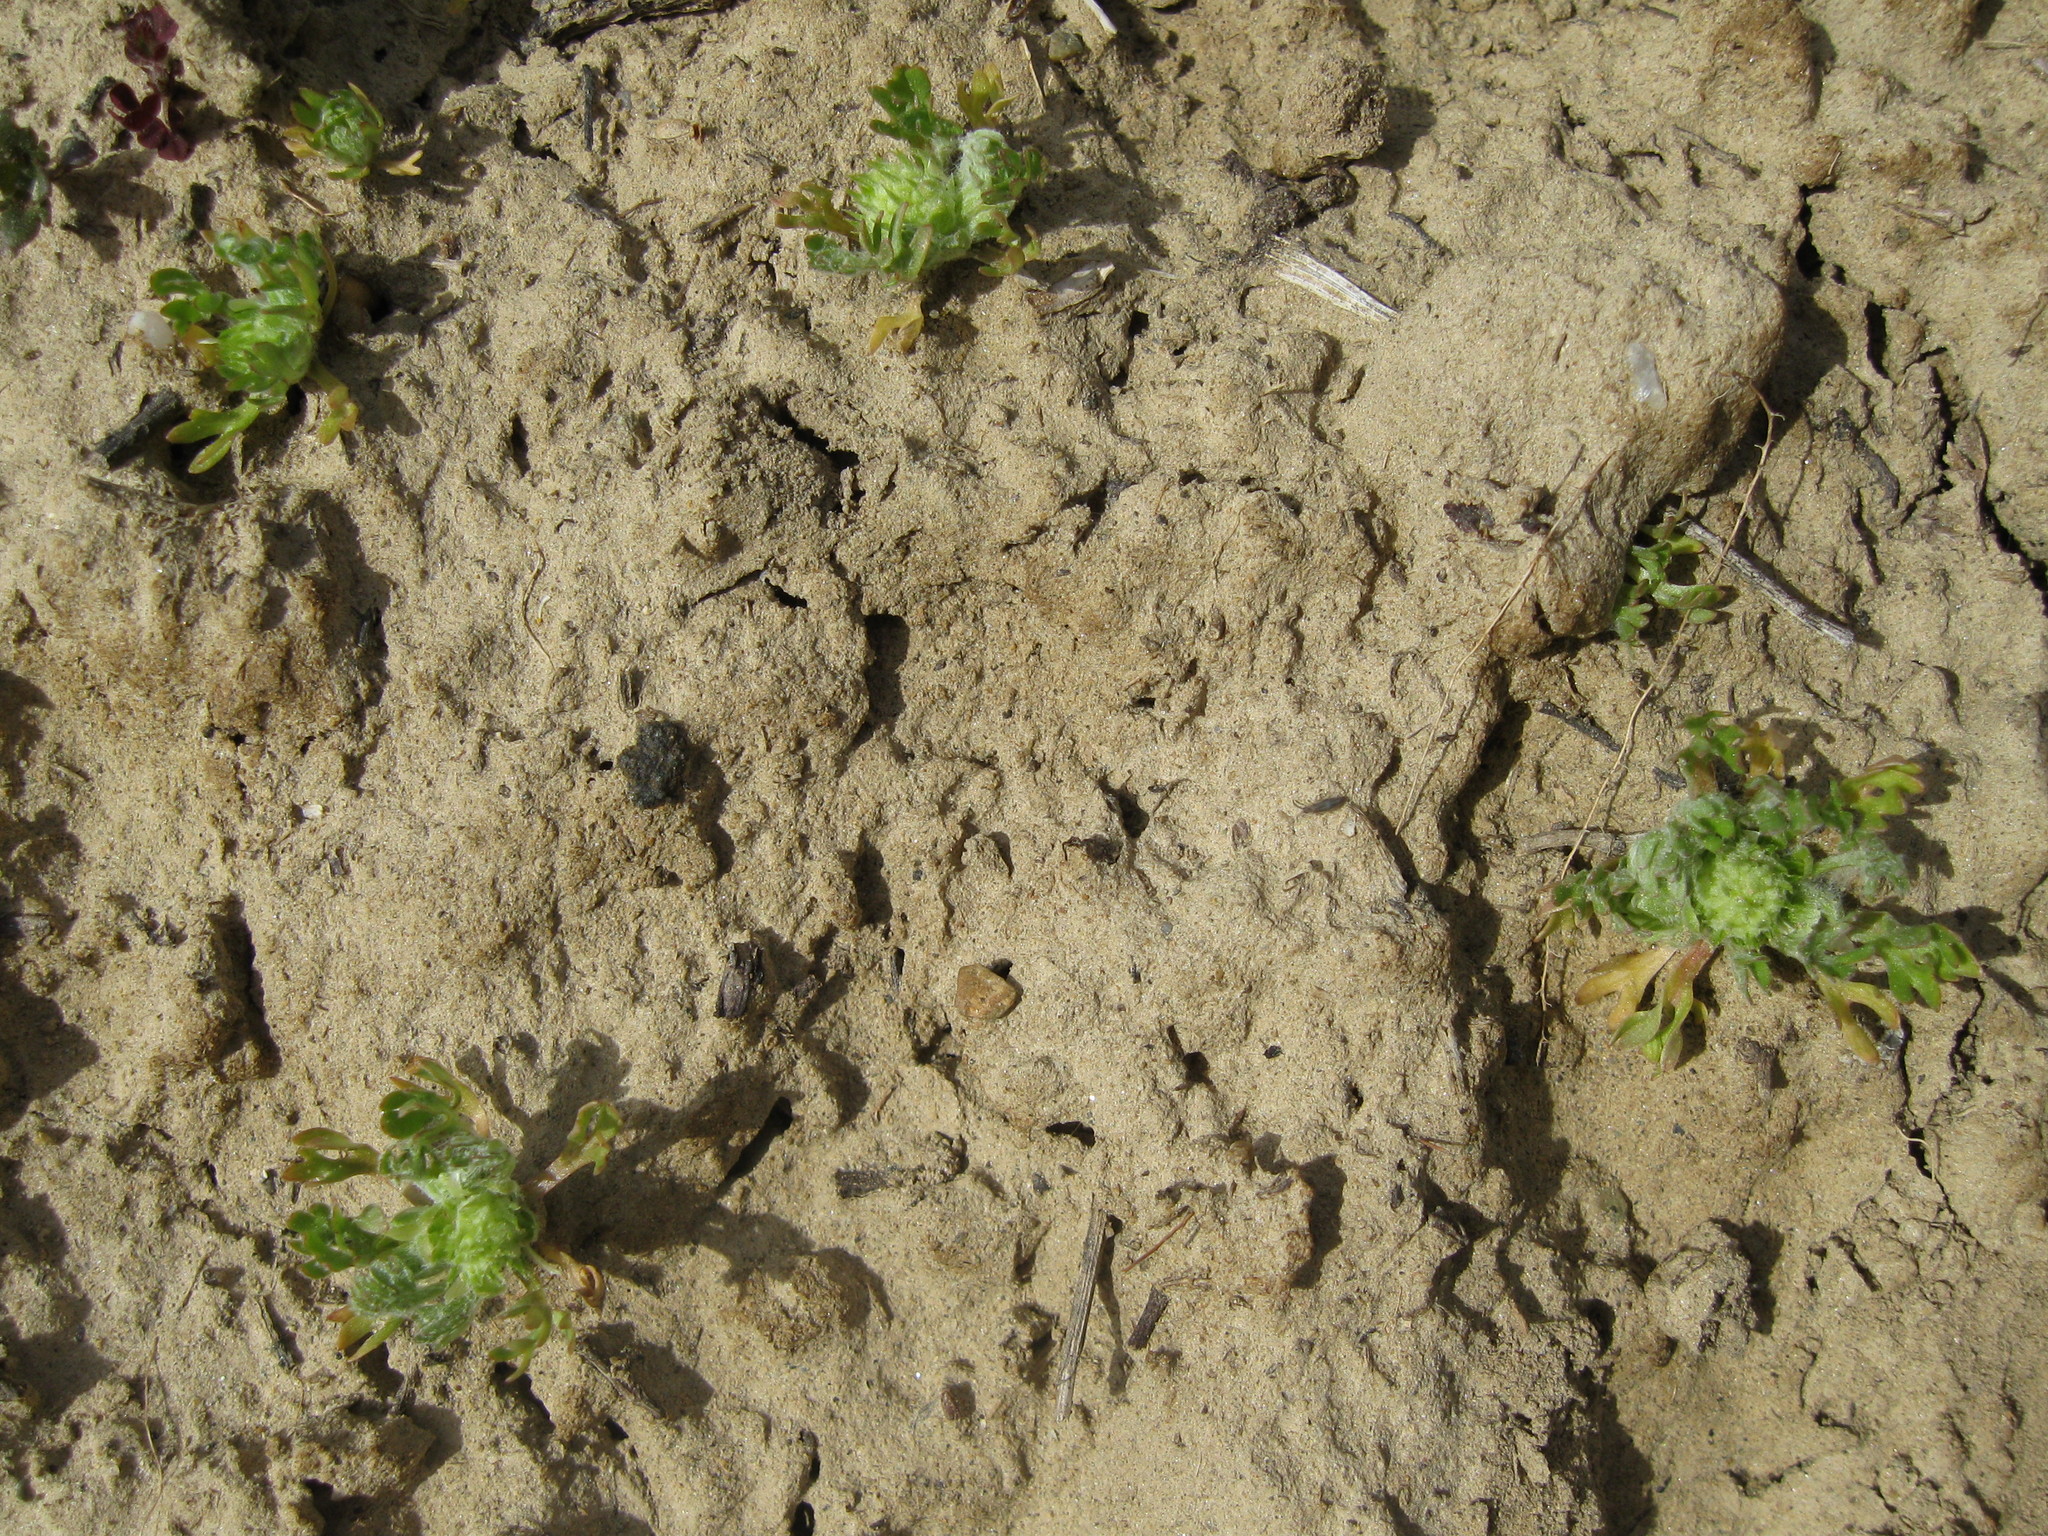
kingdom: Plantae
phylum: Tracheophyta
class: Magnoliopsida
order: Ranunculales
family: Ranunculaceae
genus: Ceratocephala
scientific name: Ceratocephala pungens
